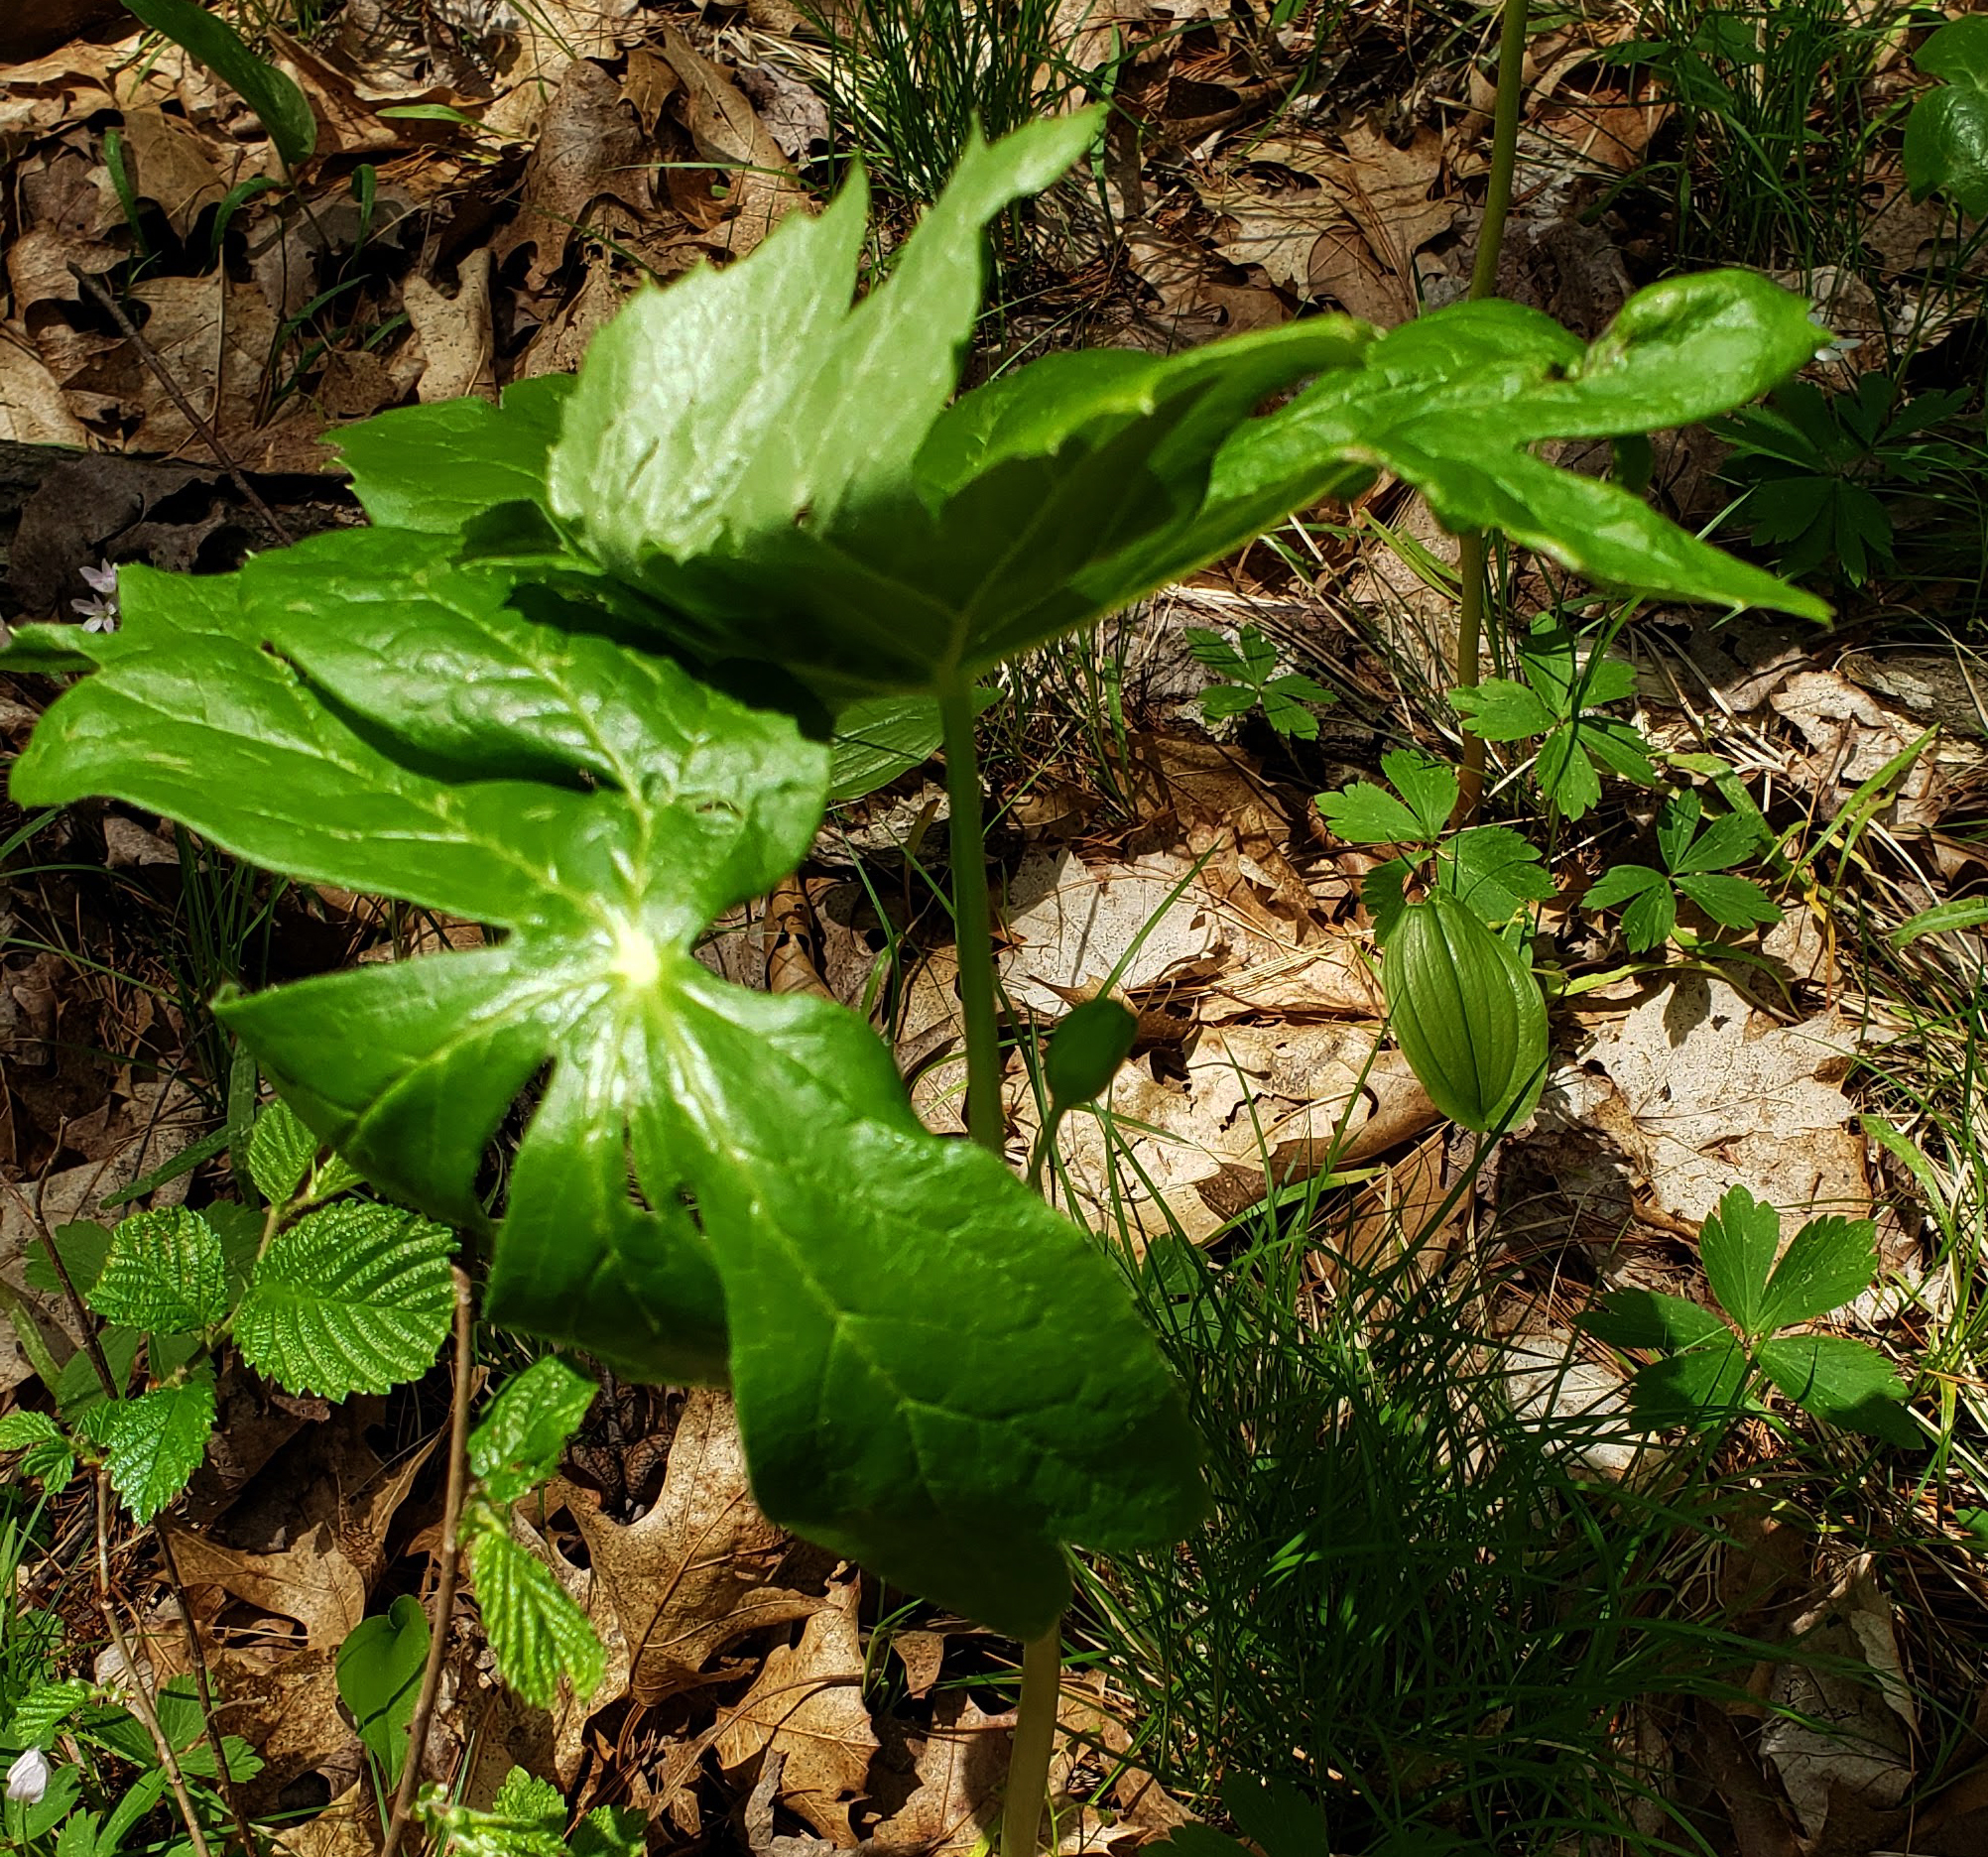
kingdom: Plantae
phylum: Tracheophyta
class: Magnoliopsida
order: Ranunculales
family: Berberidaceae
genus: Podophyllum
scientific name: Podophyllum peltatum
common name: Wild mandrake
